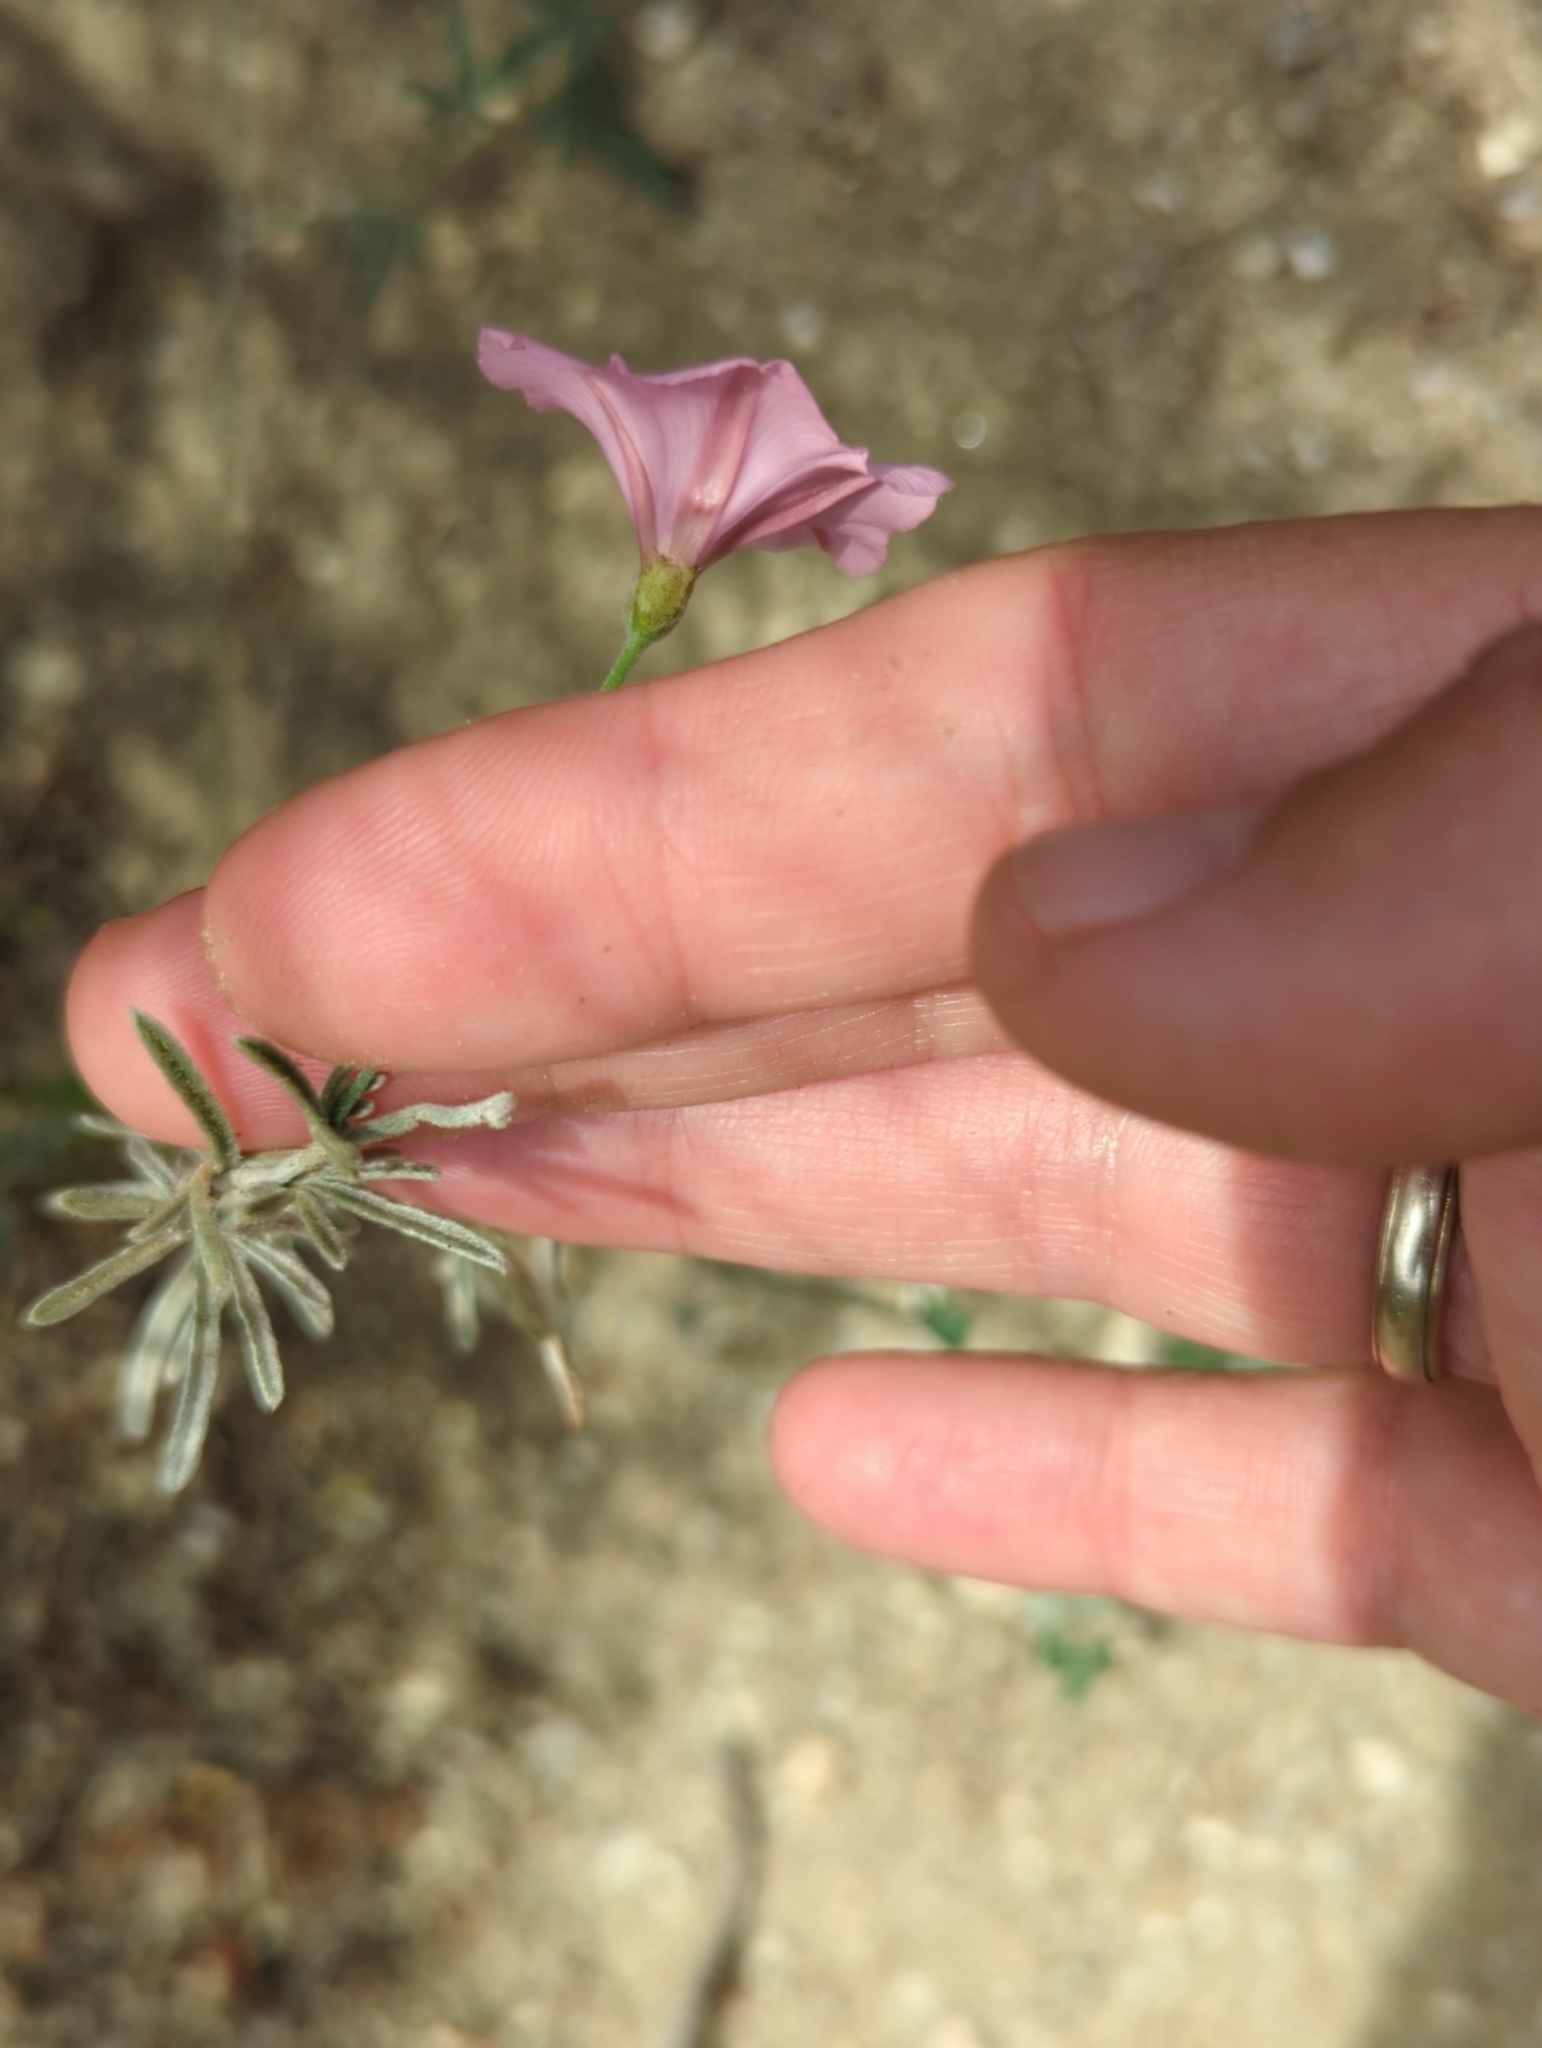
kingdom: Plantae
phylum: Tracheophyta
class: Magnoliopsida
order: Solanales
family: Convolvulaceae
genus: Convolvulus
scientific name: Convolvulus elegantissimus
